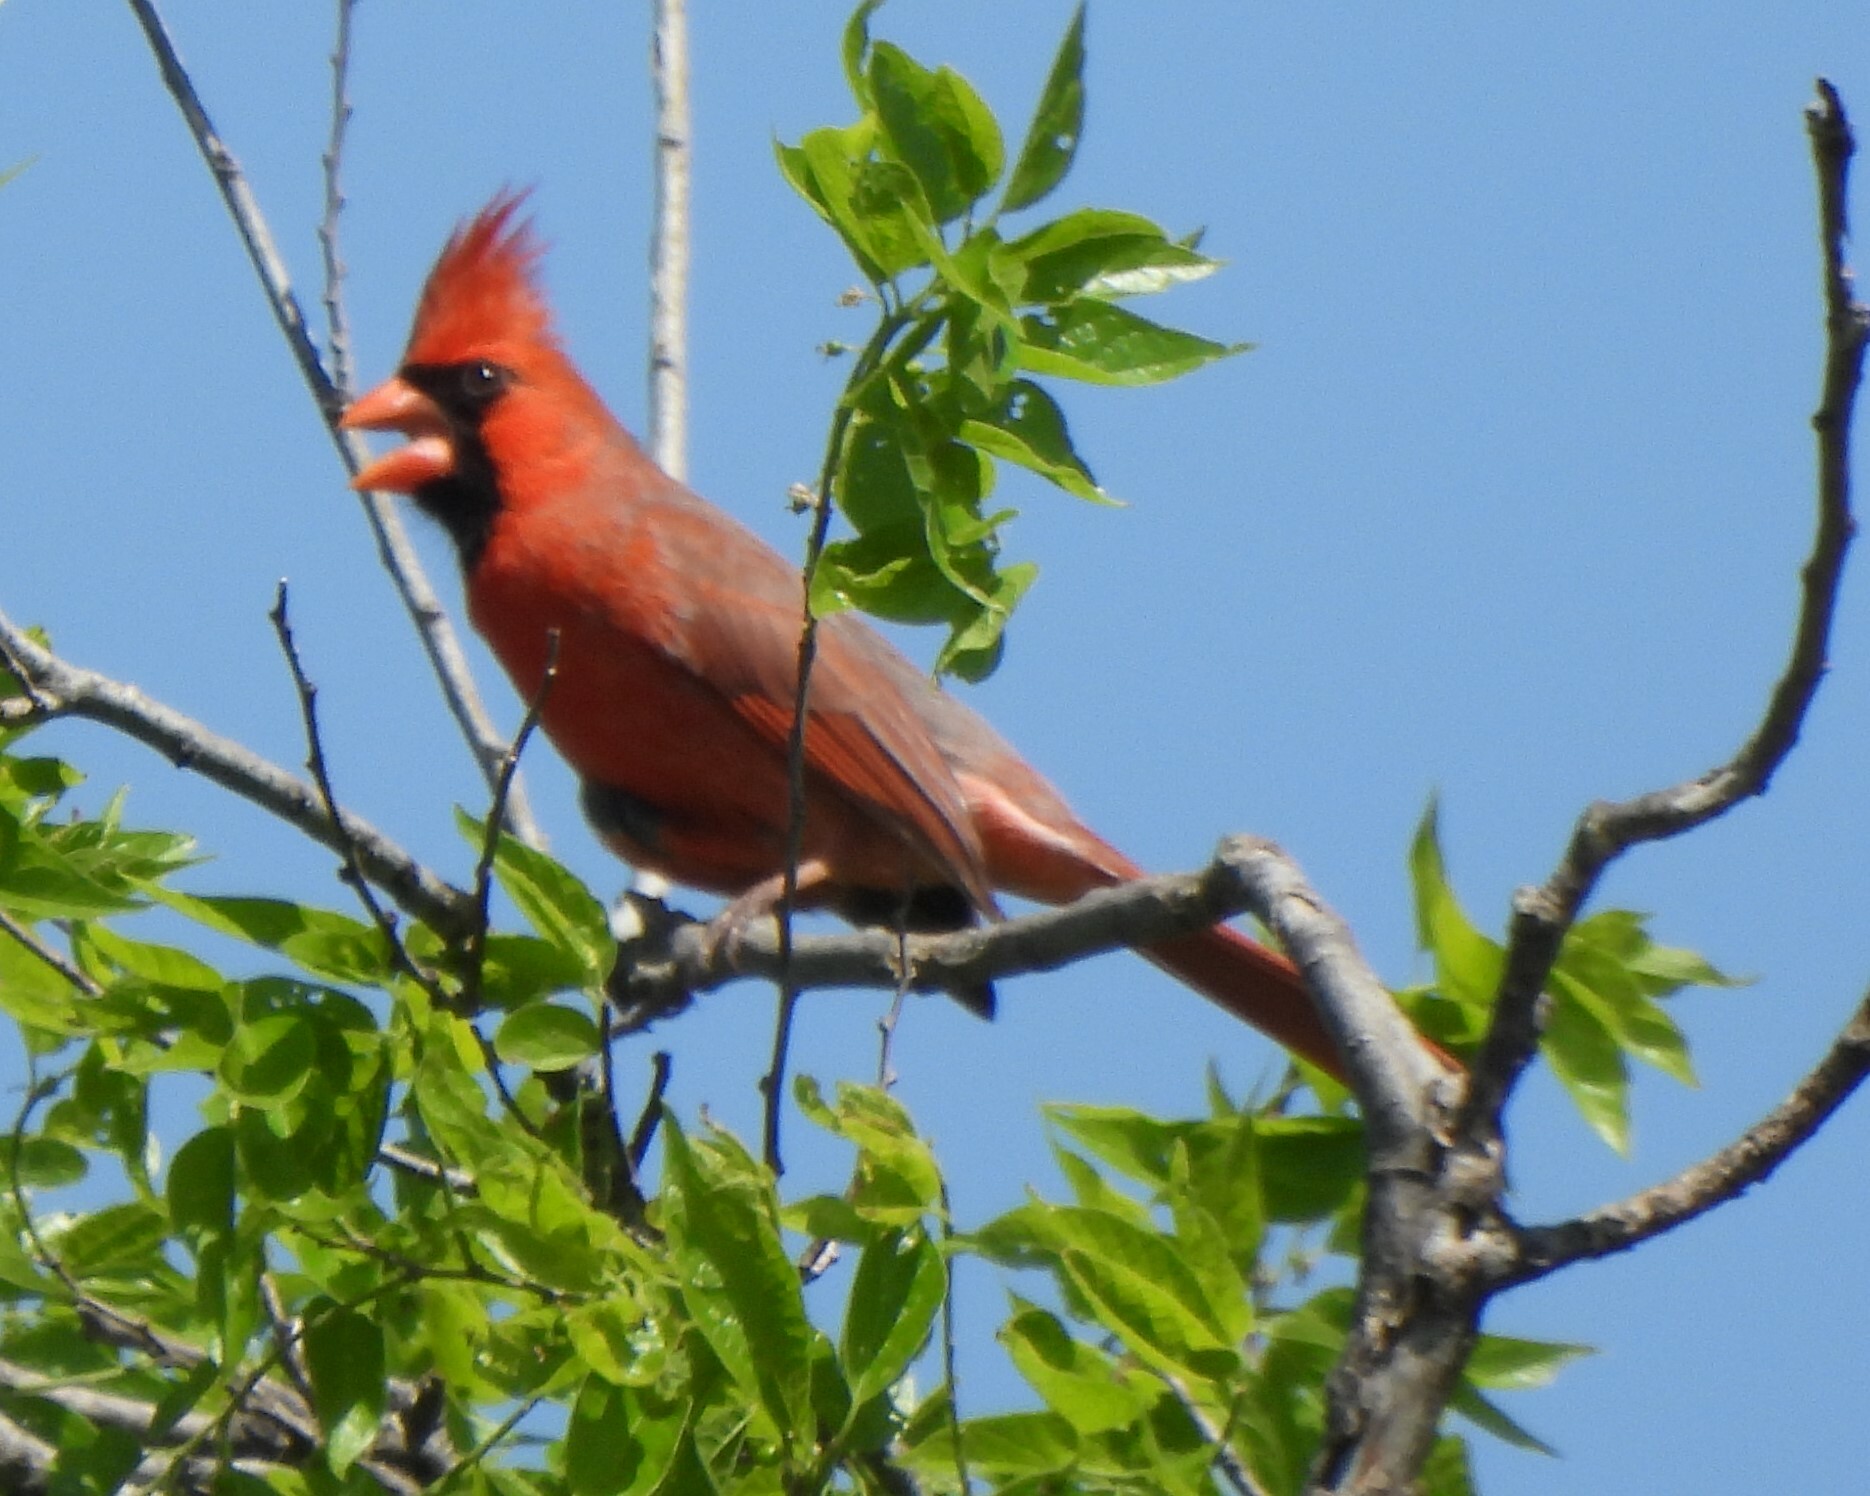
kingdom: Animalia
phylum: Chordata
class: Aves
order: Passeriformes
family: Cardinalidae
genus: Cardinalis
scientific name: Cardinalis cardinalis
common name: Northern cardinal
